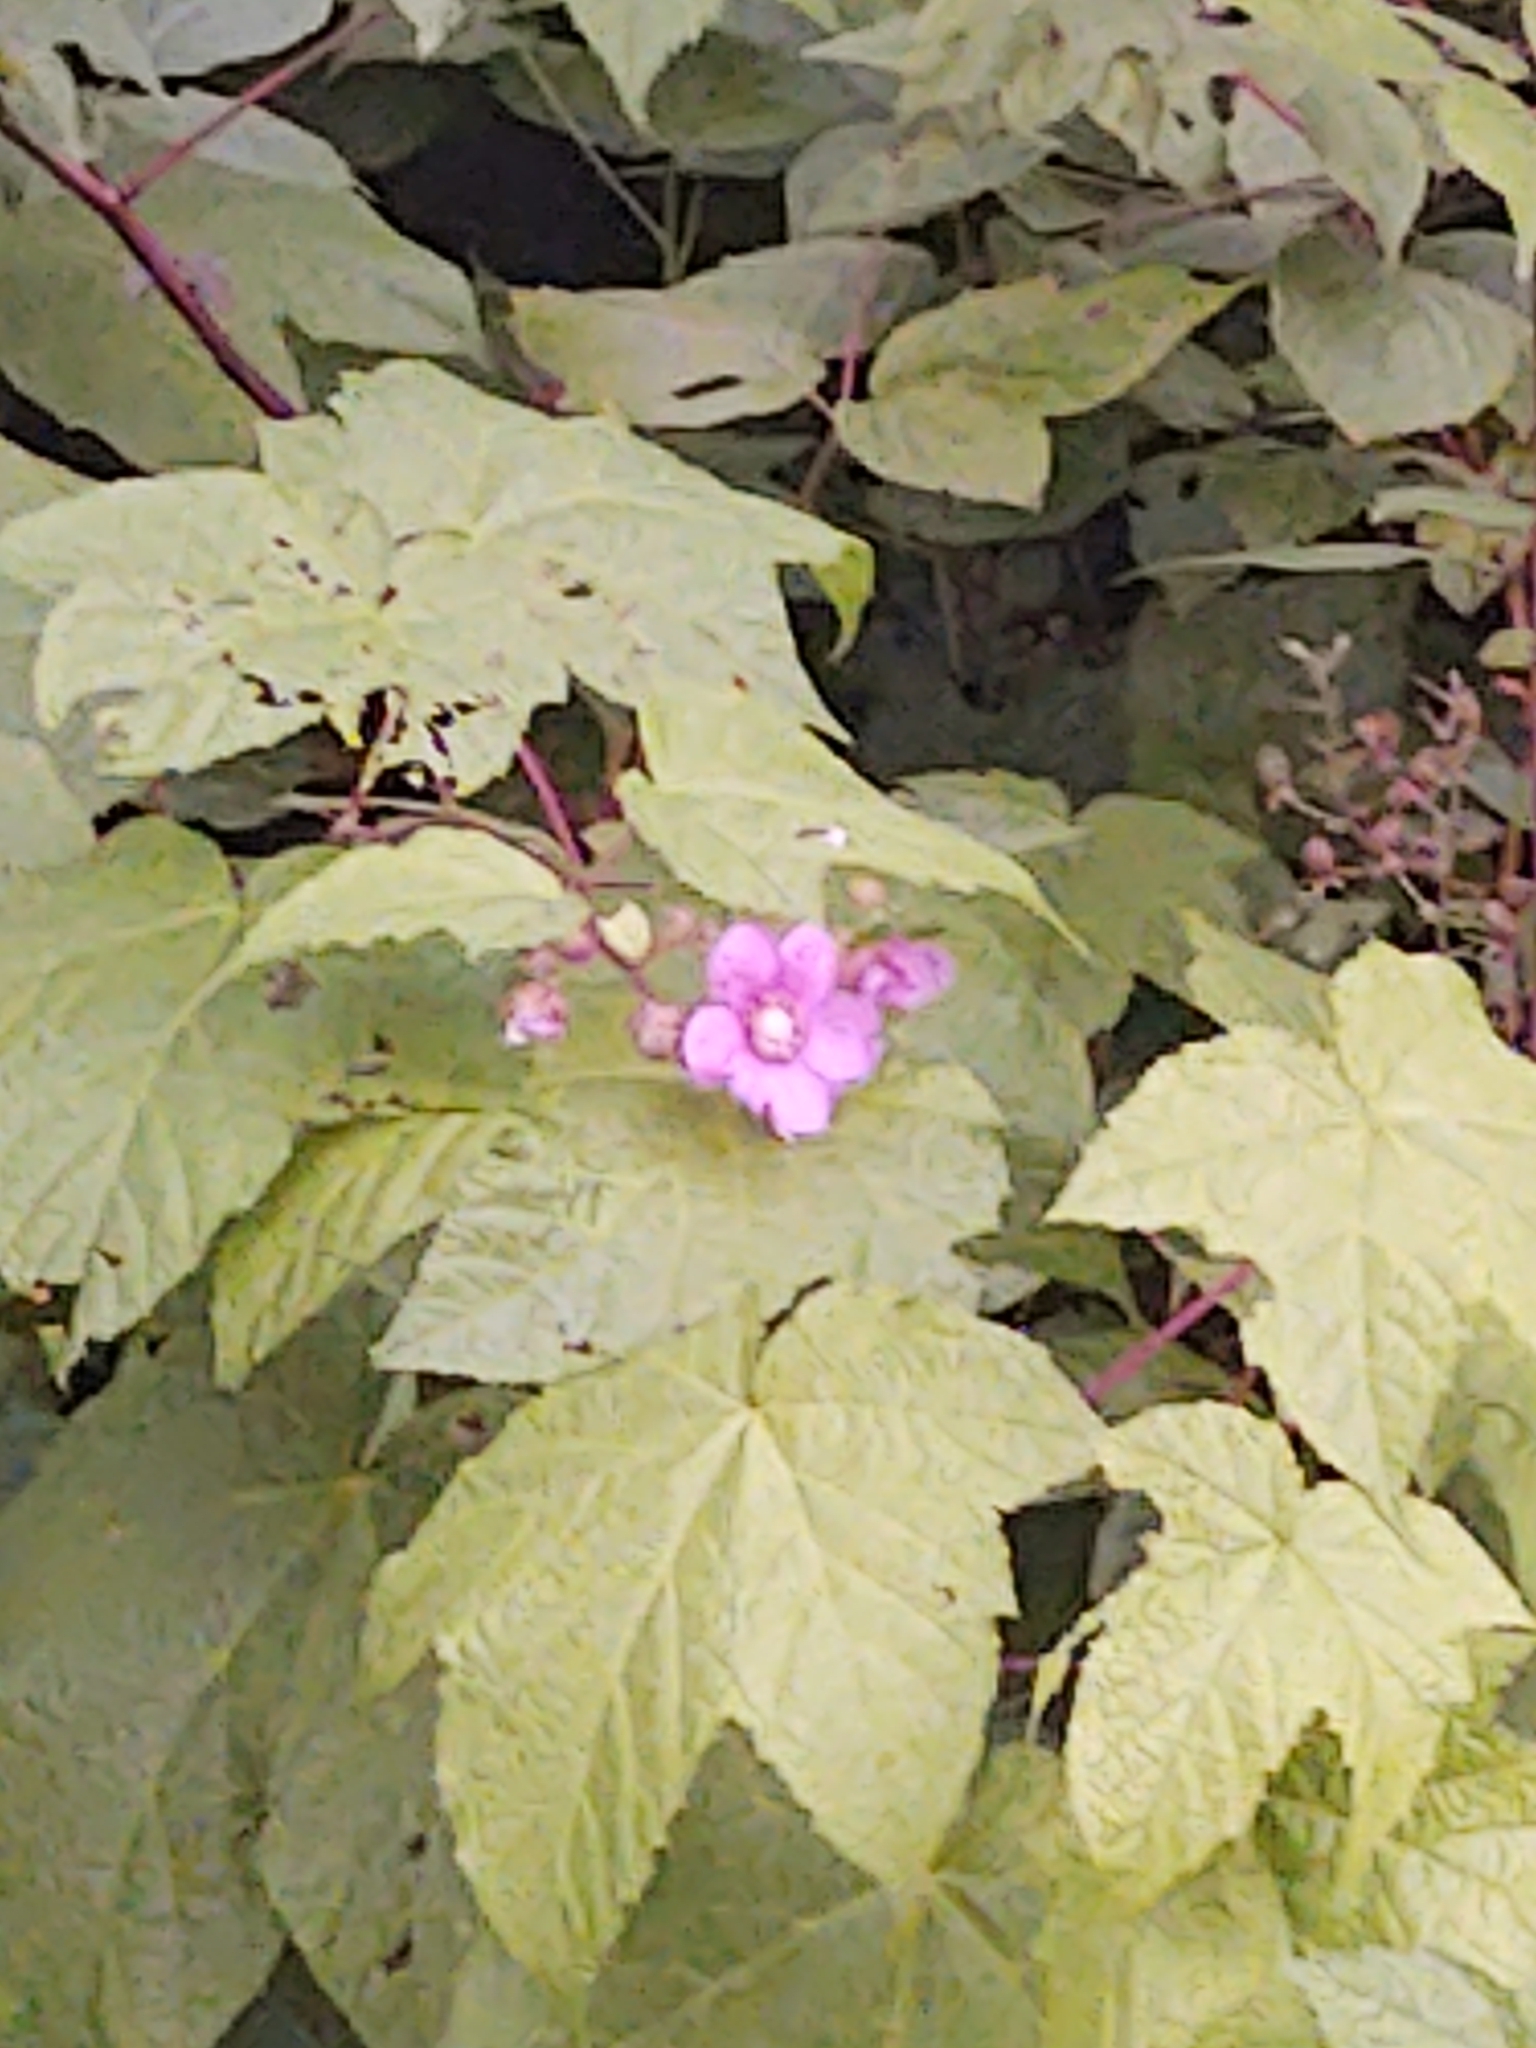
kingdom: Plantae
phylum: Tracheophyta
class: Magnoliopsida
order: Rosales
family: Rosaceae
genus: Rubus
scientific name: Rubus odoratus
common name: Purple-flowered raspberry
